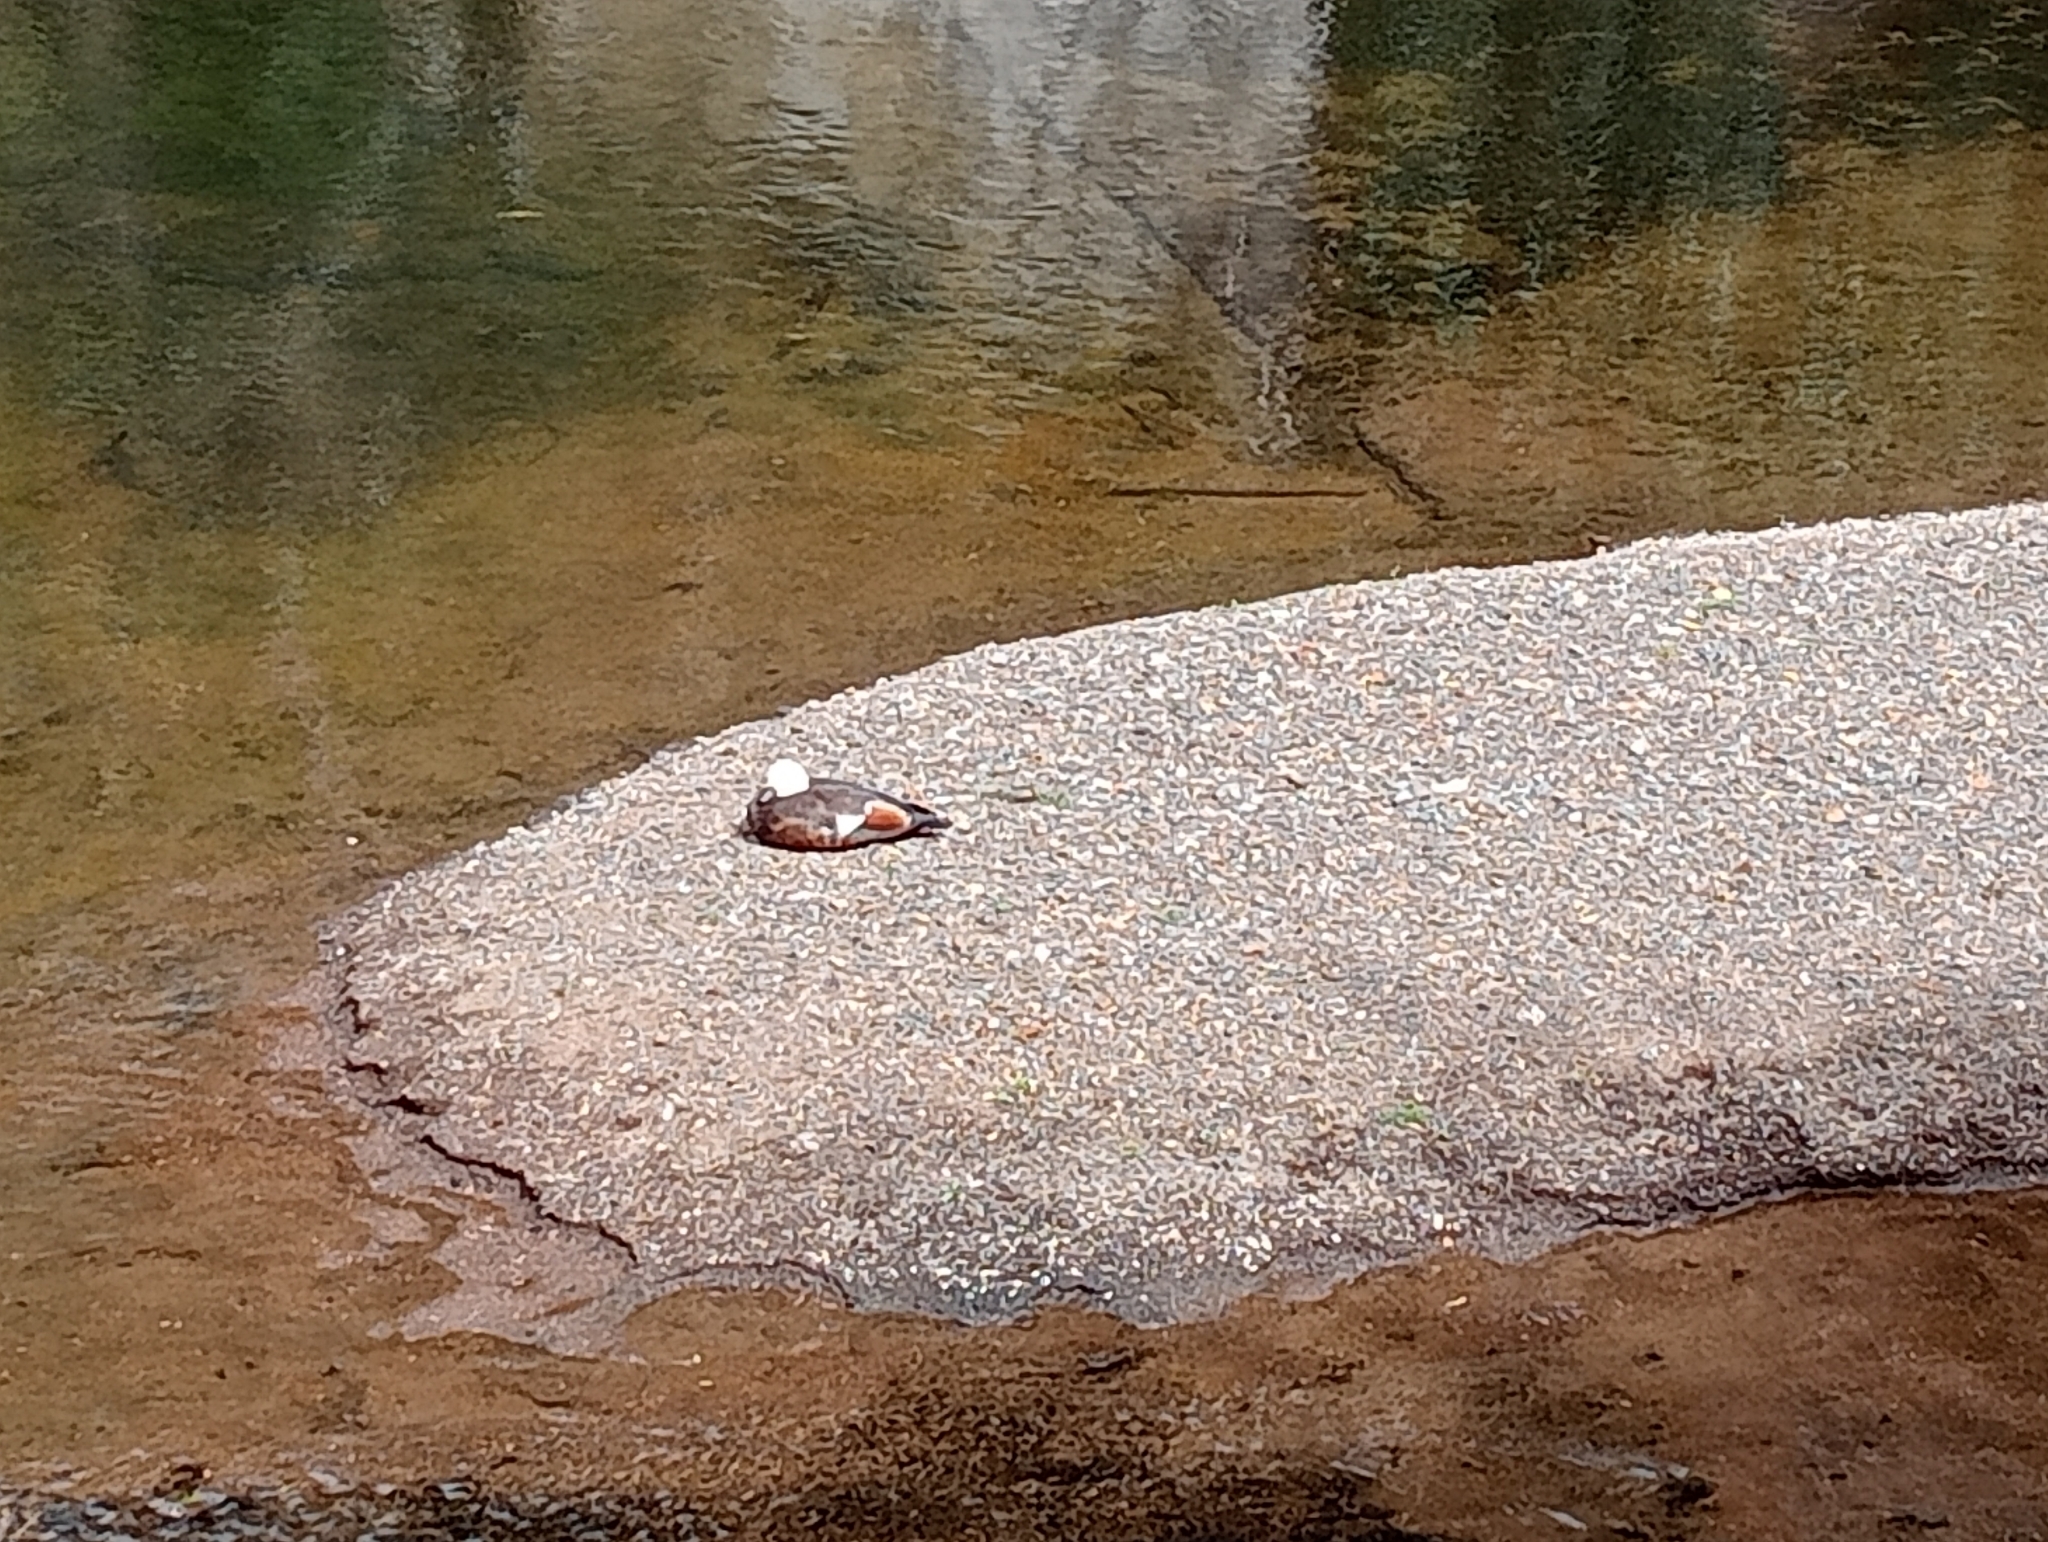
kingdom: Animalia
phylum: Chordata
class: Aves
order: Anseriformes
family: Anatidae
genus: Tadorna
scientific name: Tadorna variegata
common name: Paradise shelduck
